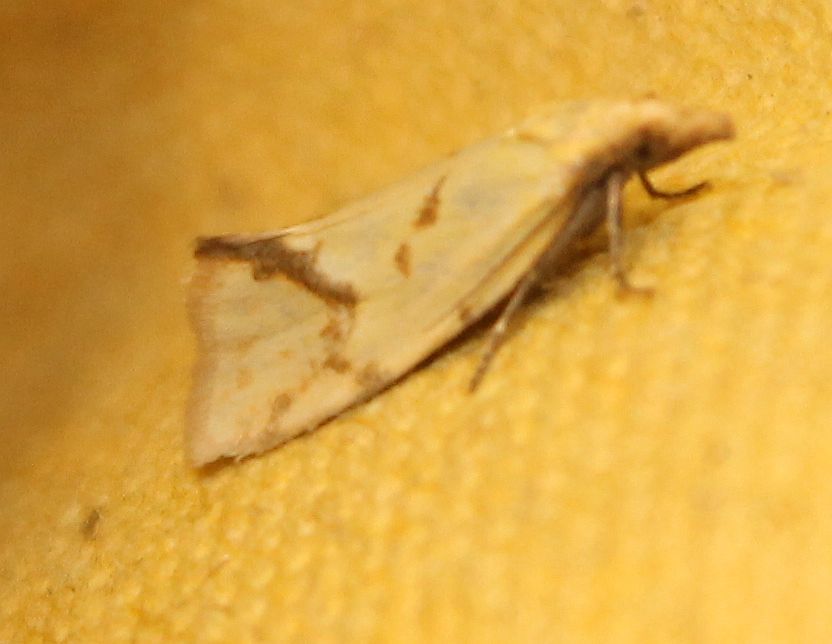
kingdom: Animalia
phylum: Arthropoda
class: Insecta
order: Lepidoptera
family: Tortricidae
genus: Agapeta
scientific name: Agapeta hamana
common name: Common yellow conch
